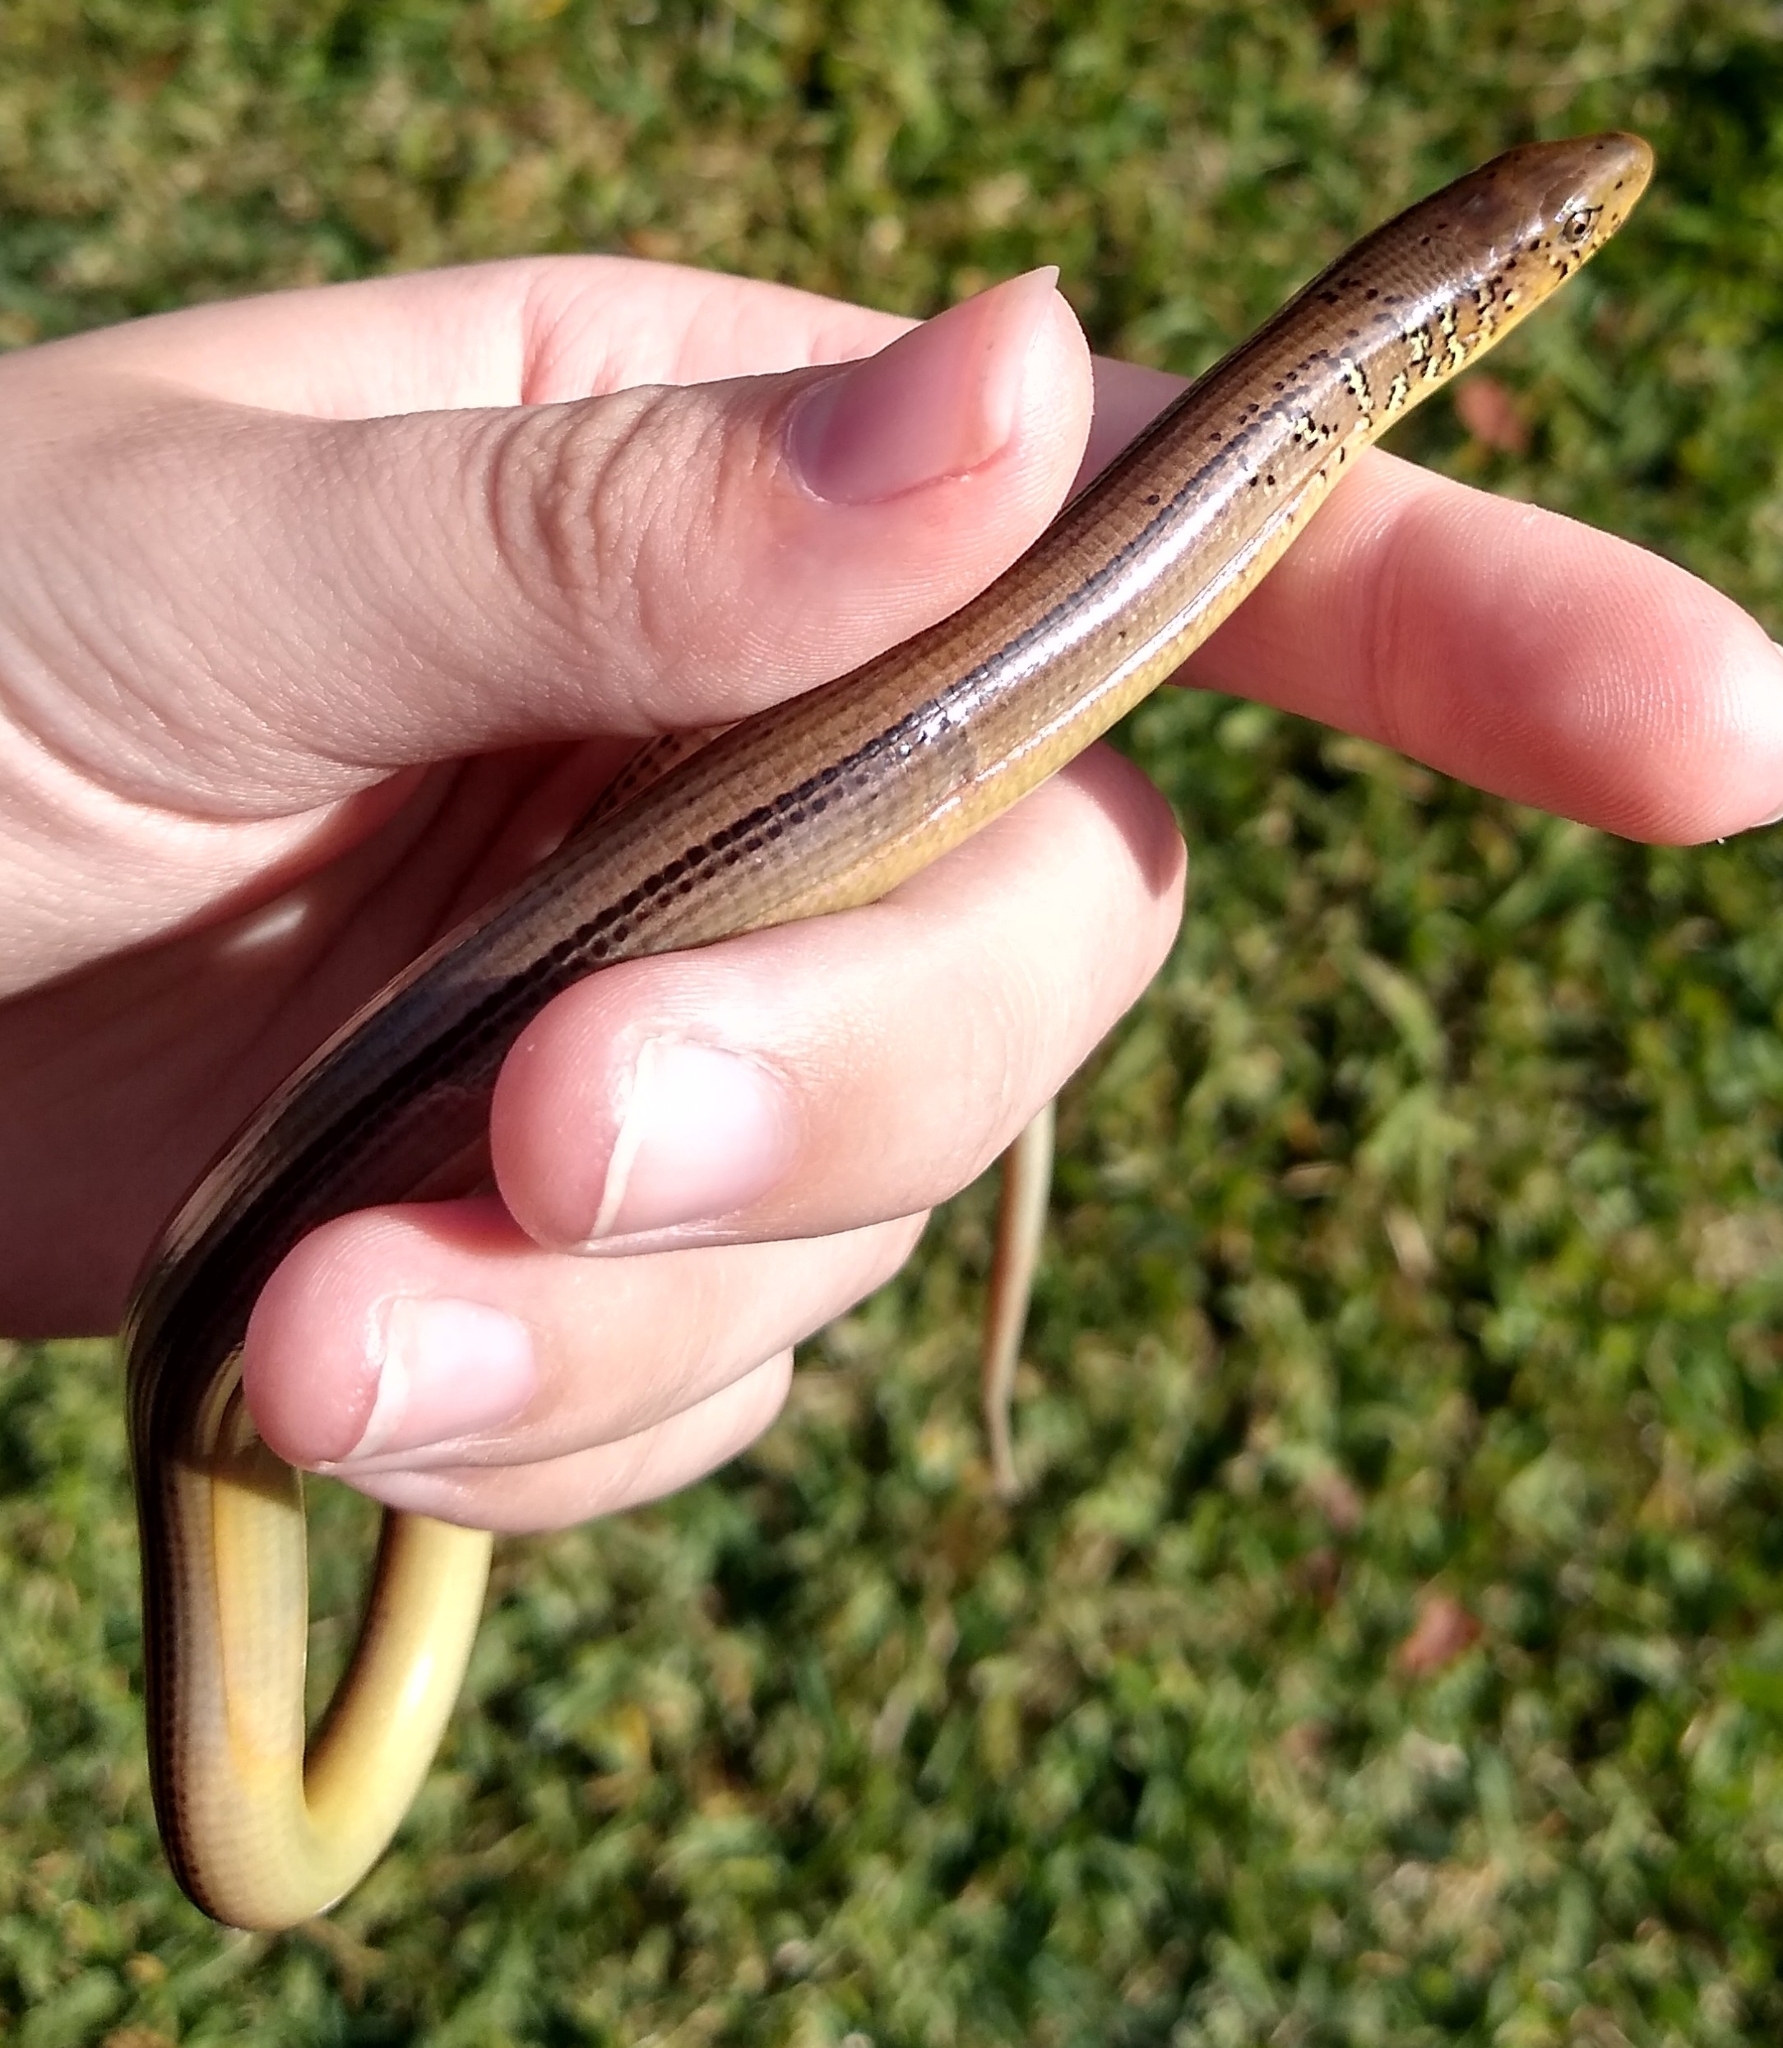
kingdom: Animalia
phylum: Chordata
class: Squamata
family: Anguidae
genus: Ophisaurus
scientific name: Ophisaurus ventralis
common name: Eastern glass lizard
